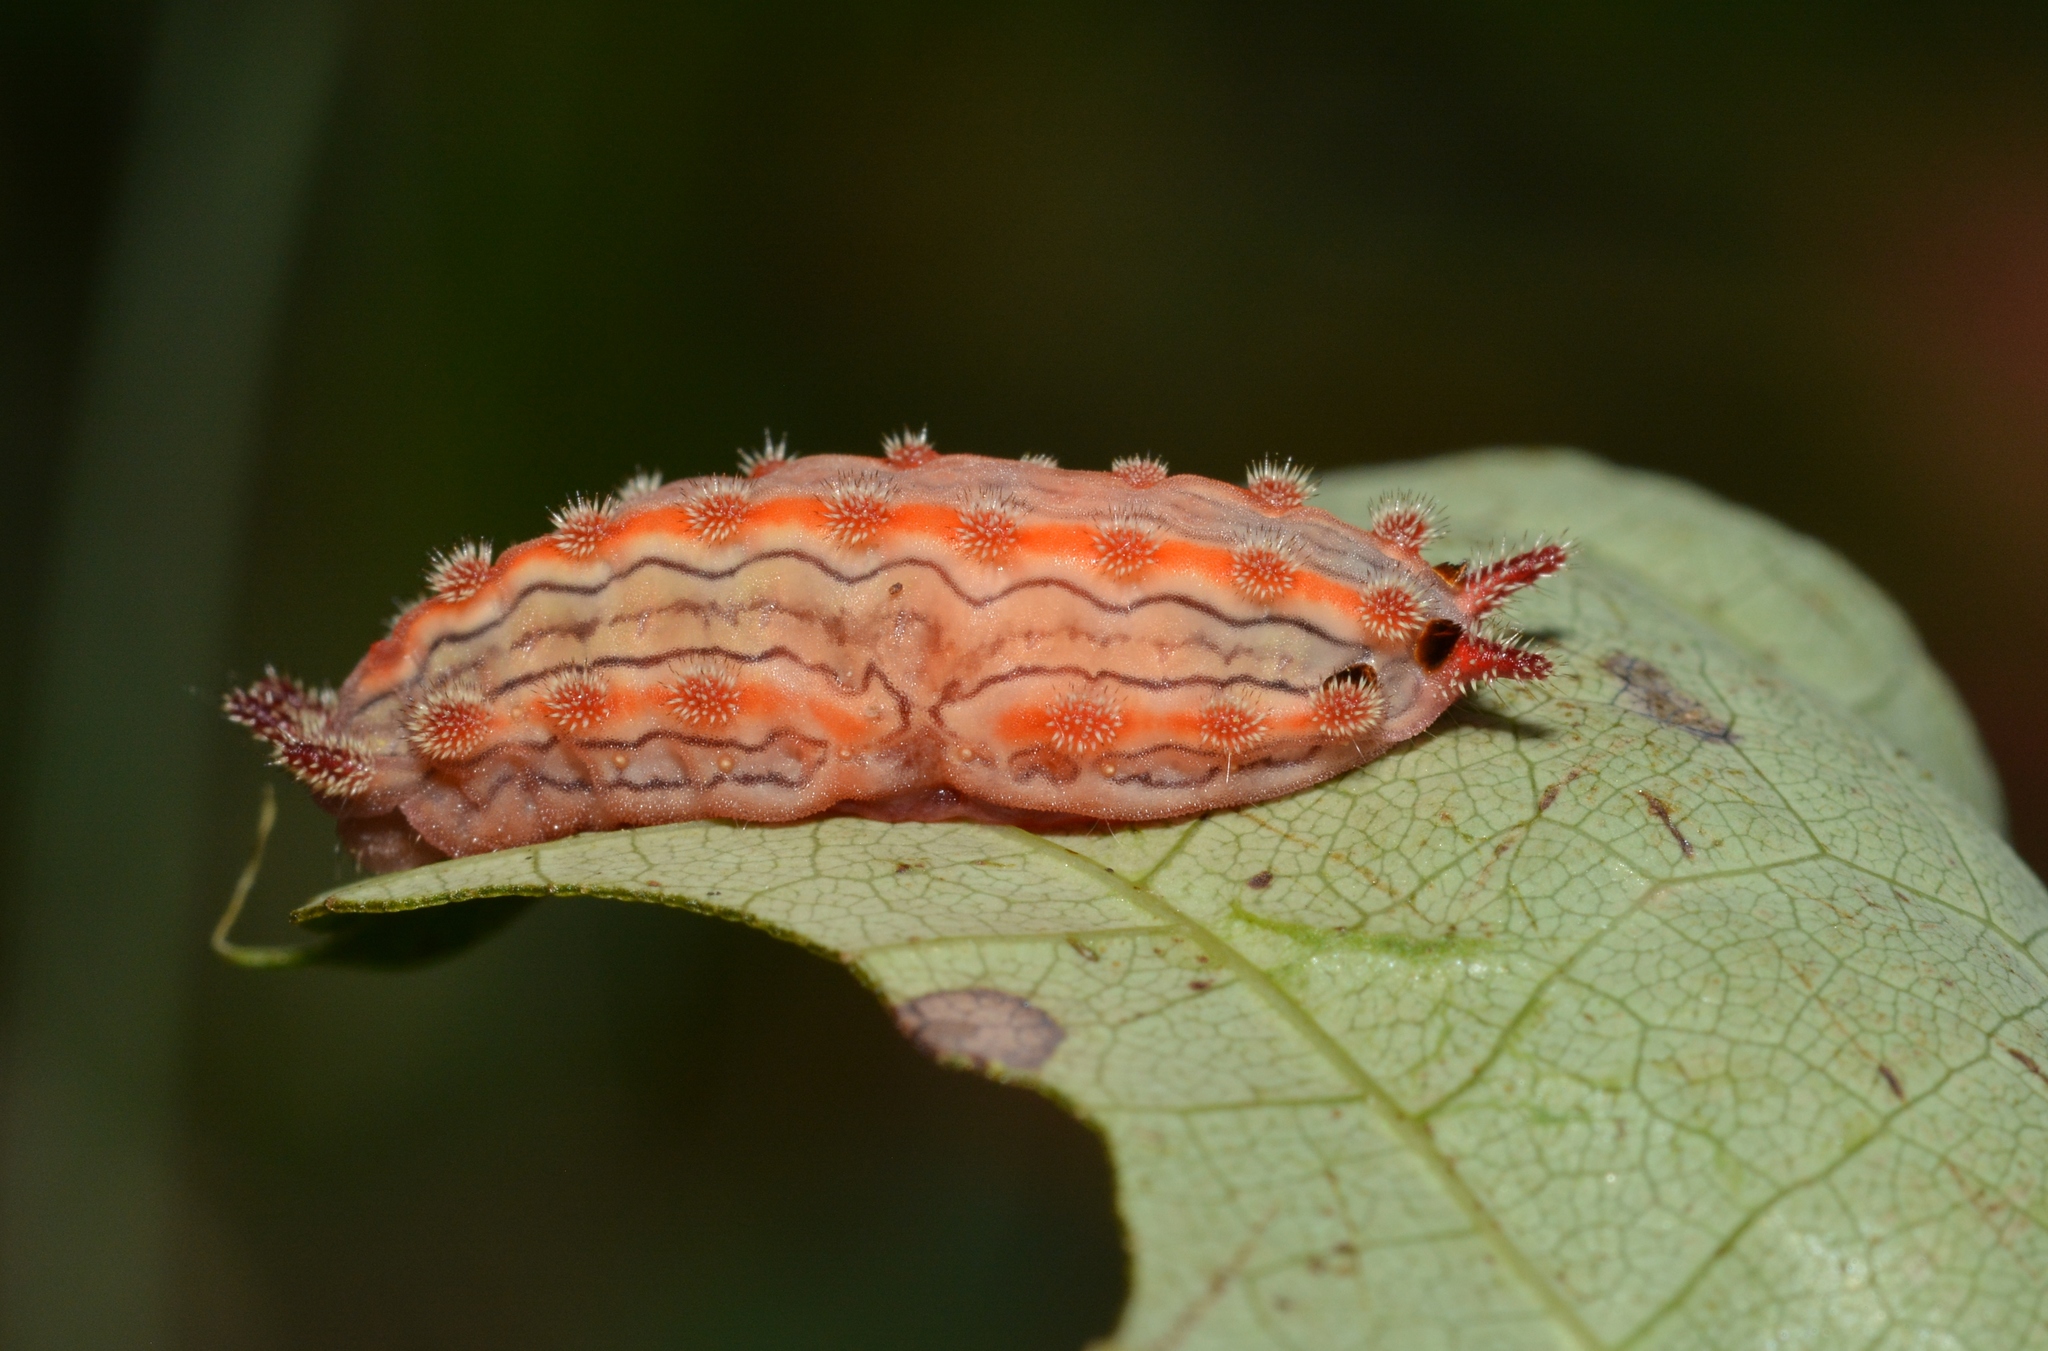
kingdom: Animalia
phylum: Arthropoda
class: Insecta
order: Lepidoptera
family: Limacodidae
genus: Monoleuca
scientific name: Monoleuca semifascia
